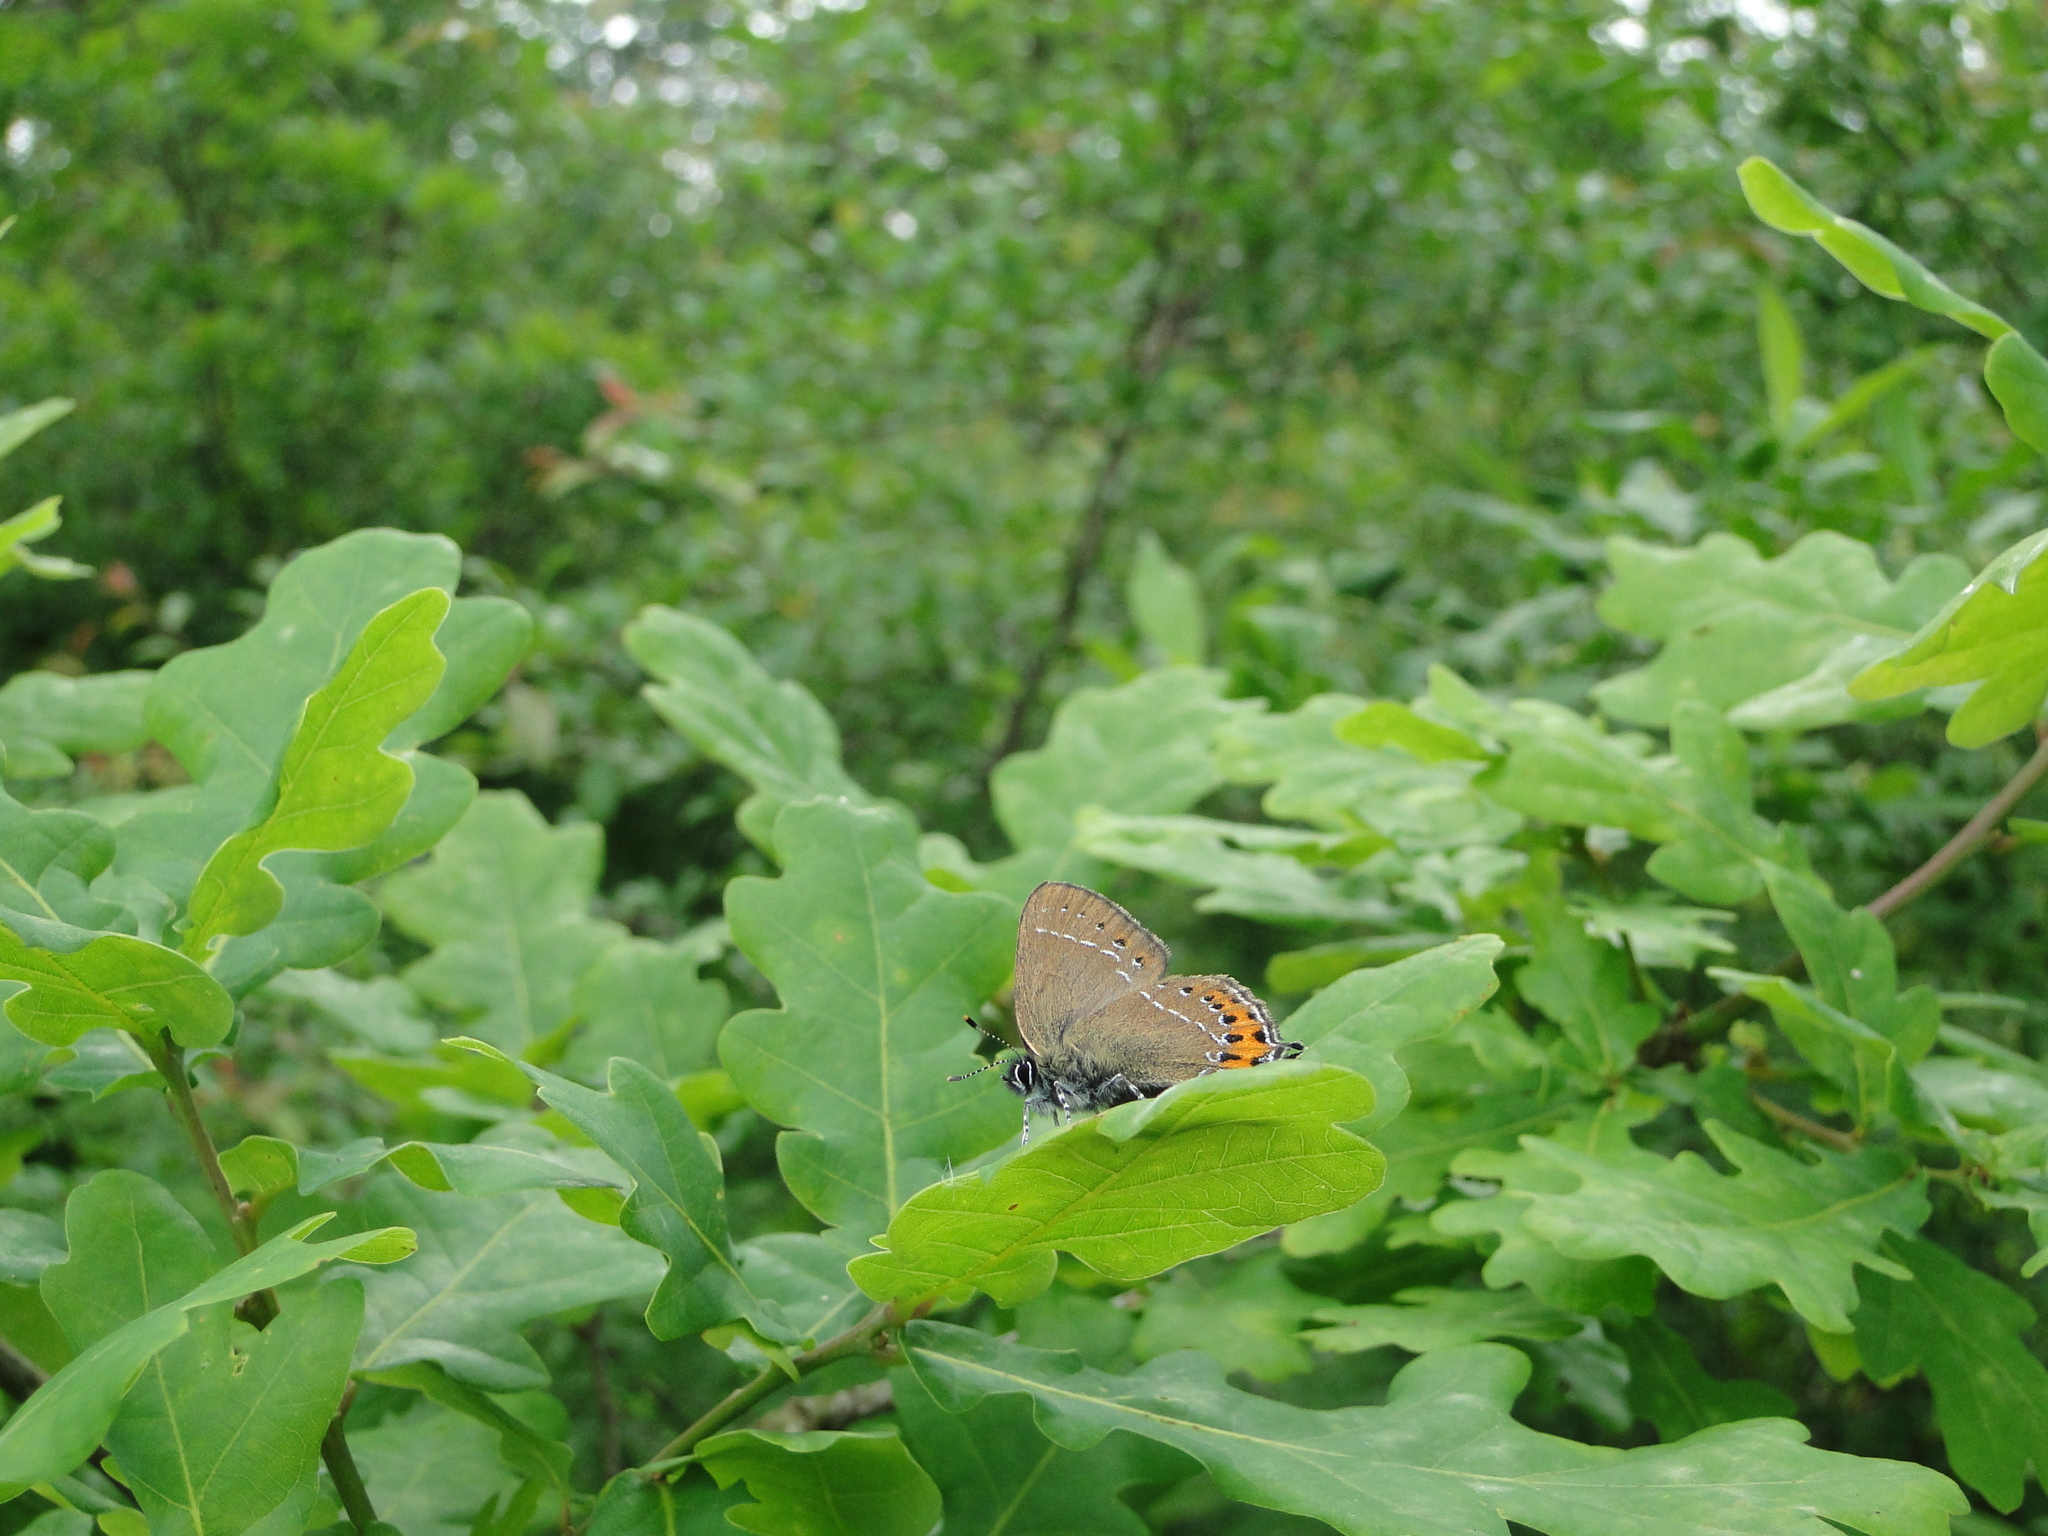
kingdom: Animalia
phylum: Arthropoda
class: Insecta
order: Lepidoptera
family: Lycaenidae
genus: Fixsenia
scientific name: Fixsenia pruni
